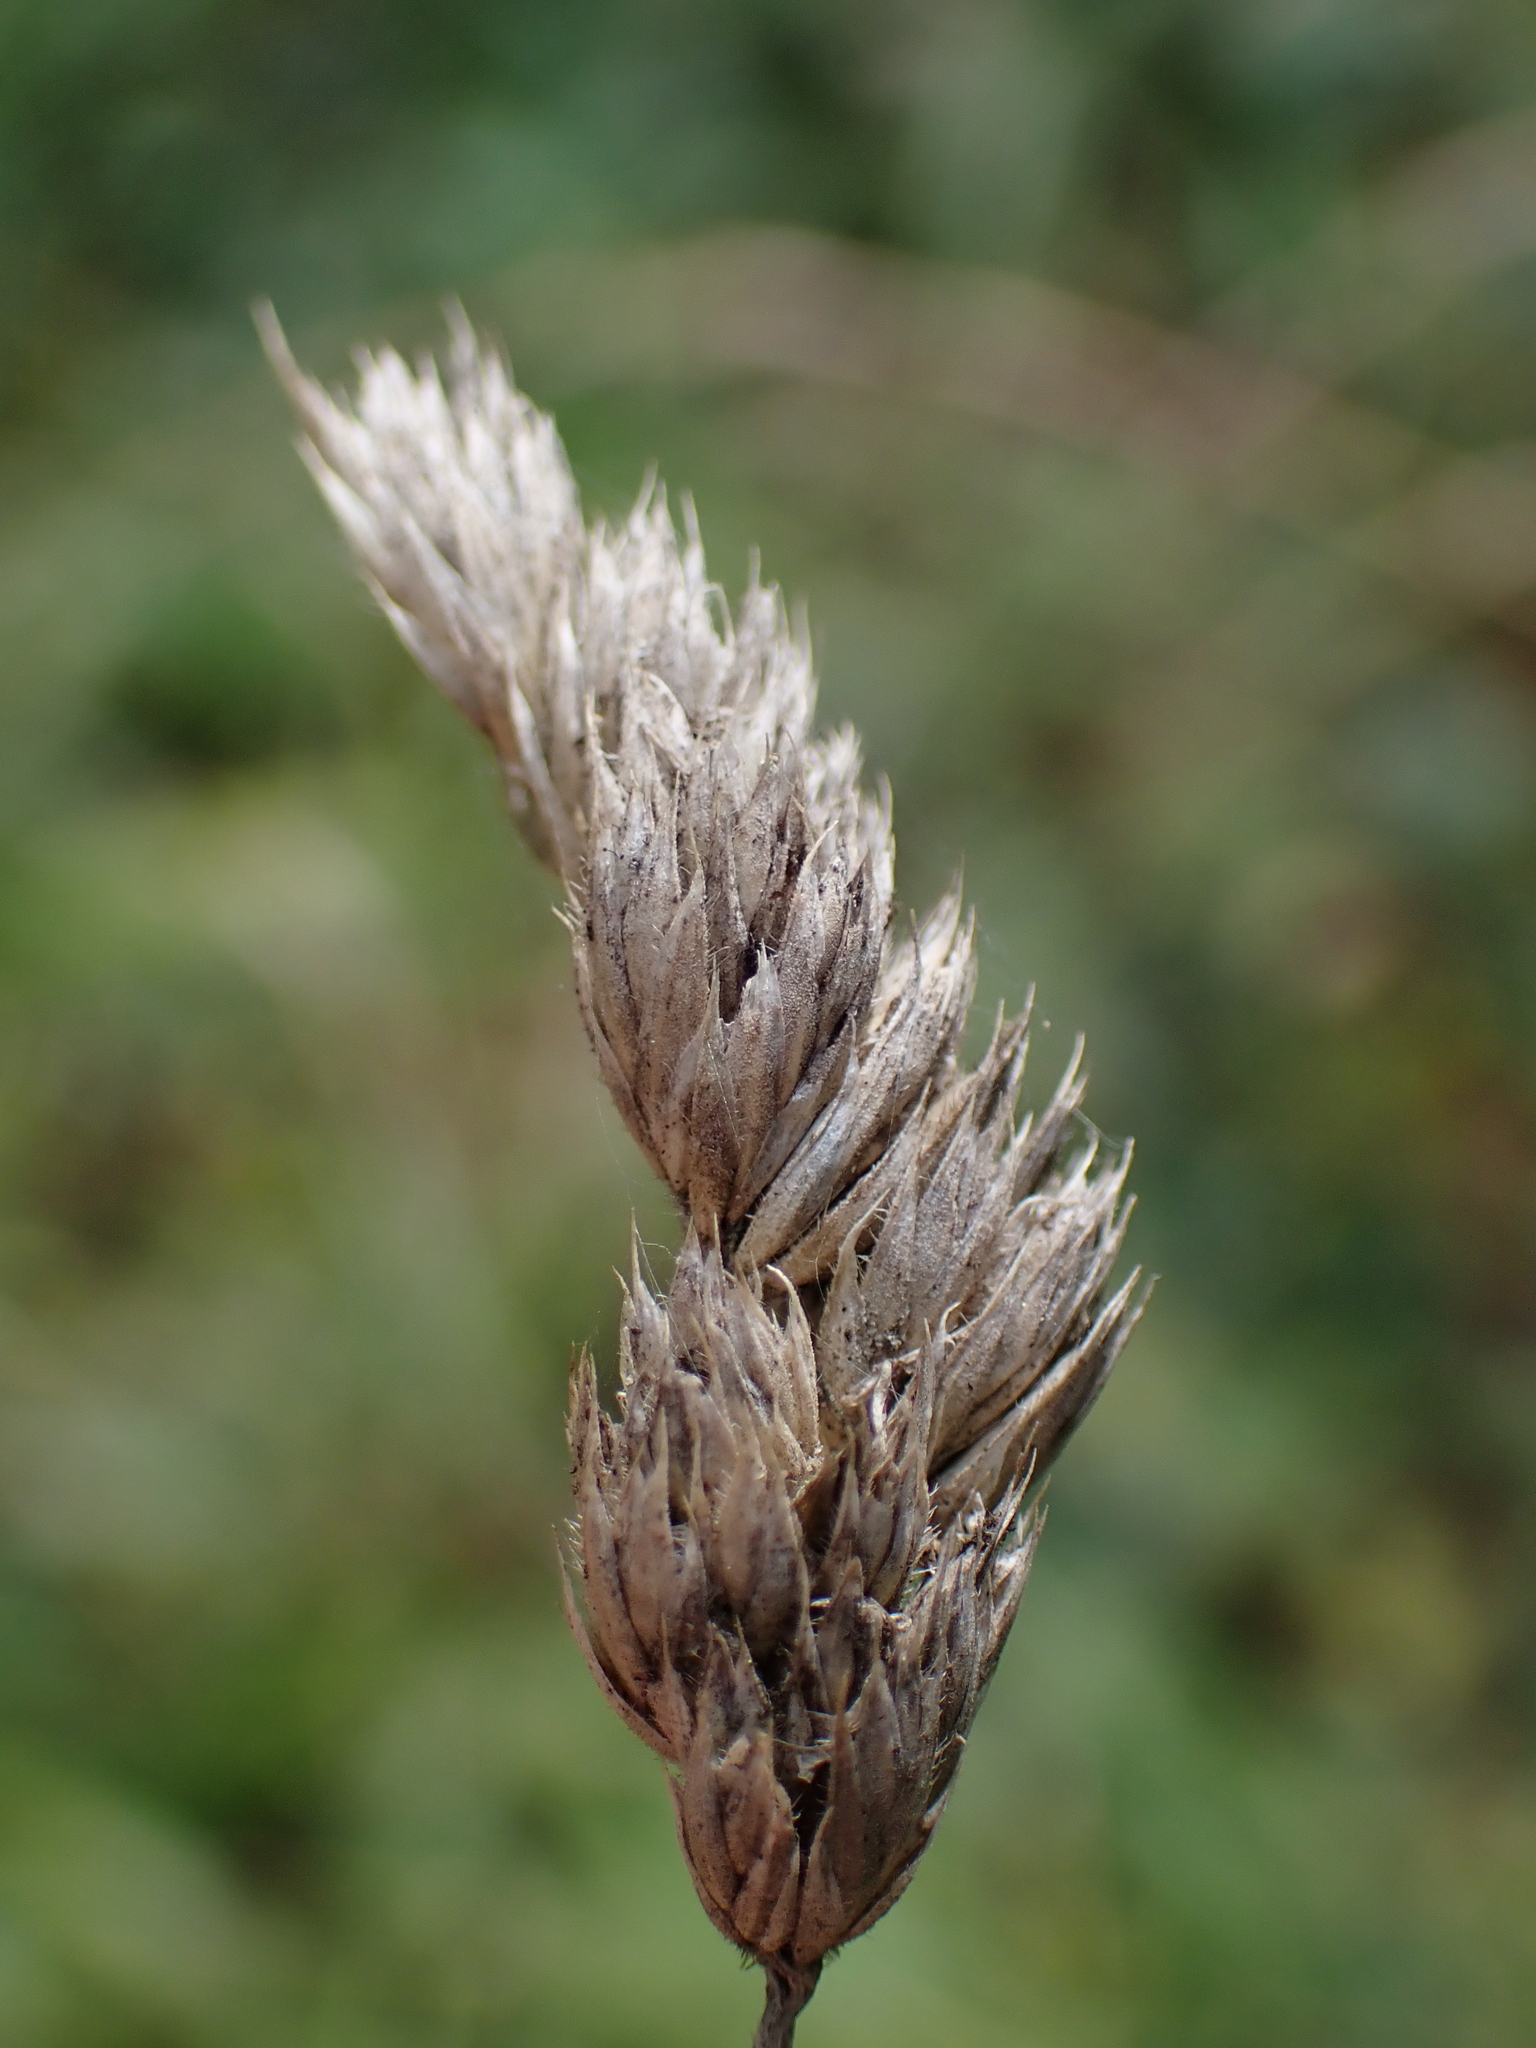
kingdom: Plantae
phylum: Tracheophyta
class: Liliopsida
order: Poales
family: Poaceae
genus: Dactylis
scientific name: Dactylis glomerata
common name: Orchardgrass
